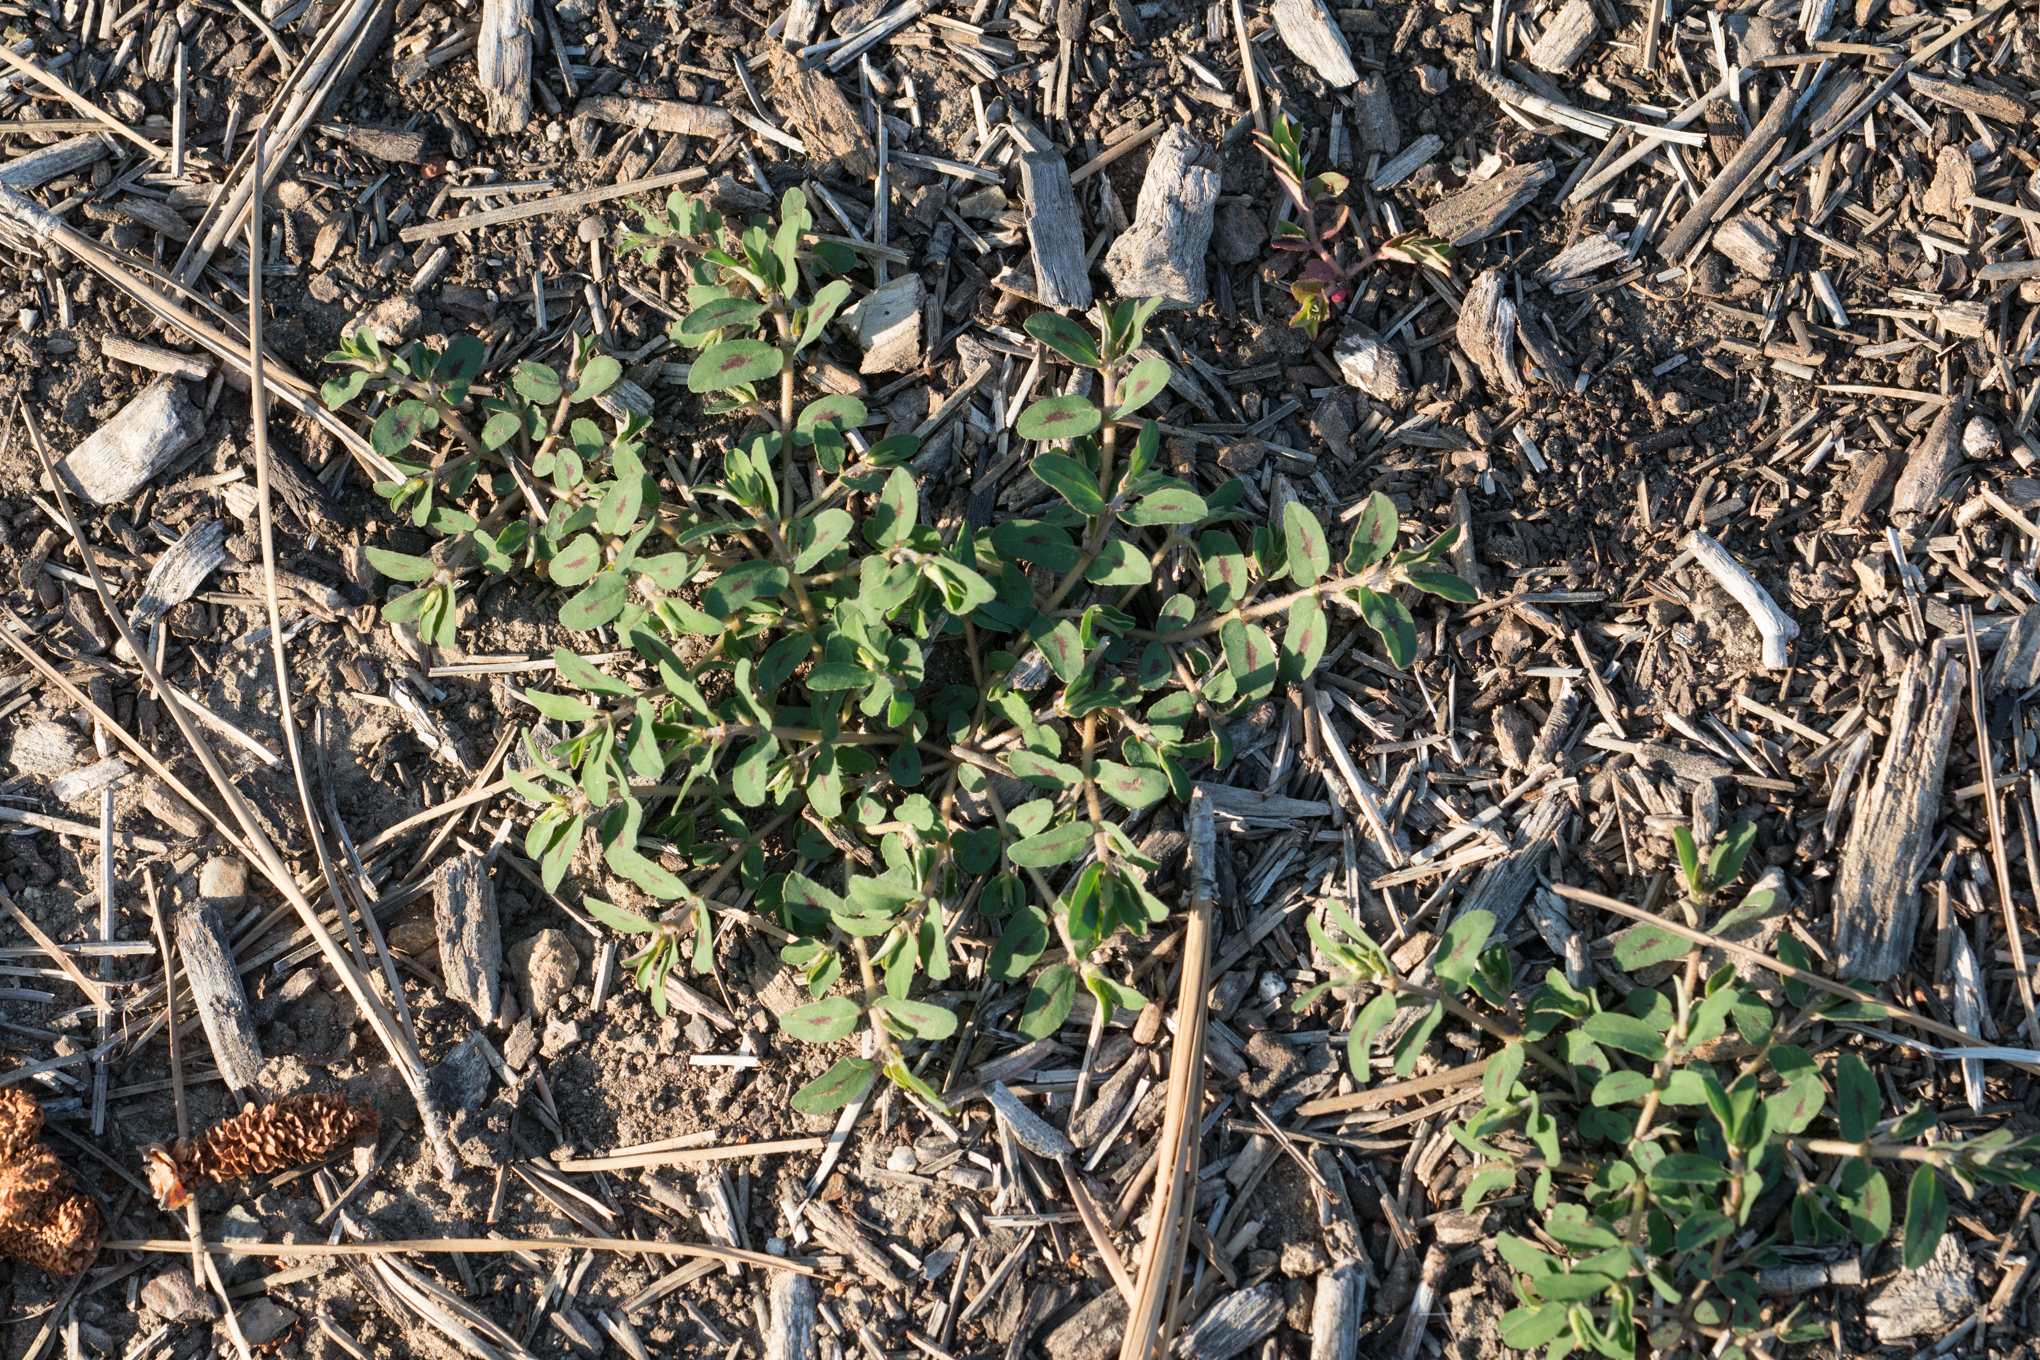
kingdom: Plantae
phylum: Tracheophyta
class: Magnoliopsida
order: Malpighiales
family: Euphorbiaceae
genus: Euphorbia
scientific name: Euphorbia maculata
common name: Spotted spurge
